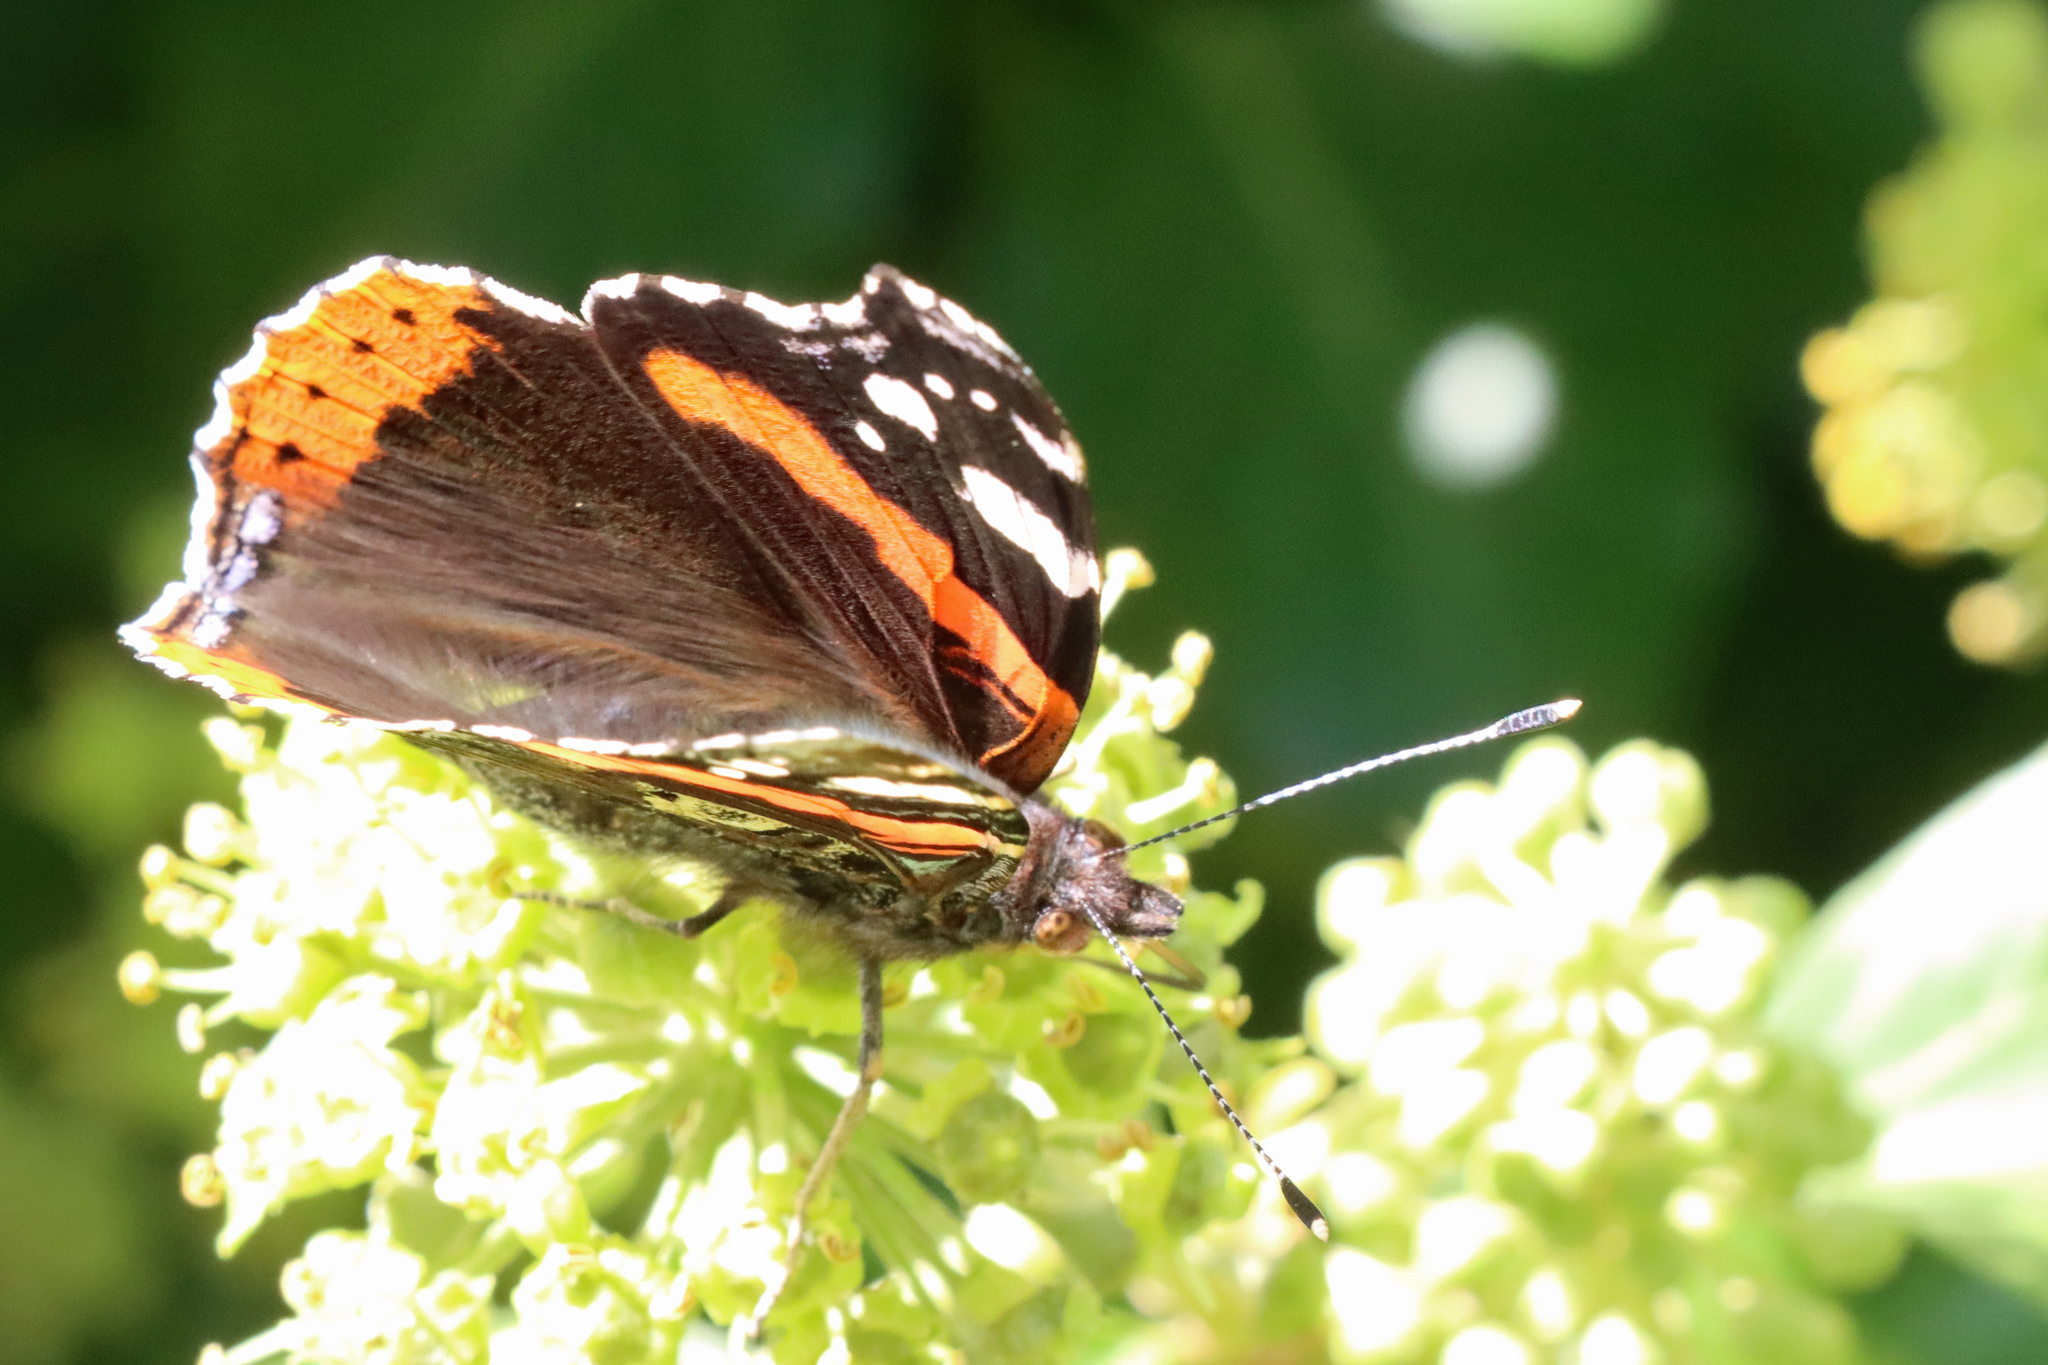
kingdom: Animalia
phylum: Arthropoda
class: Insecta
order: Lepidoptera
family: Nymphalidae
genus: Vanessa
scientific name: Vanessa atalanta
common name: Red admiral
